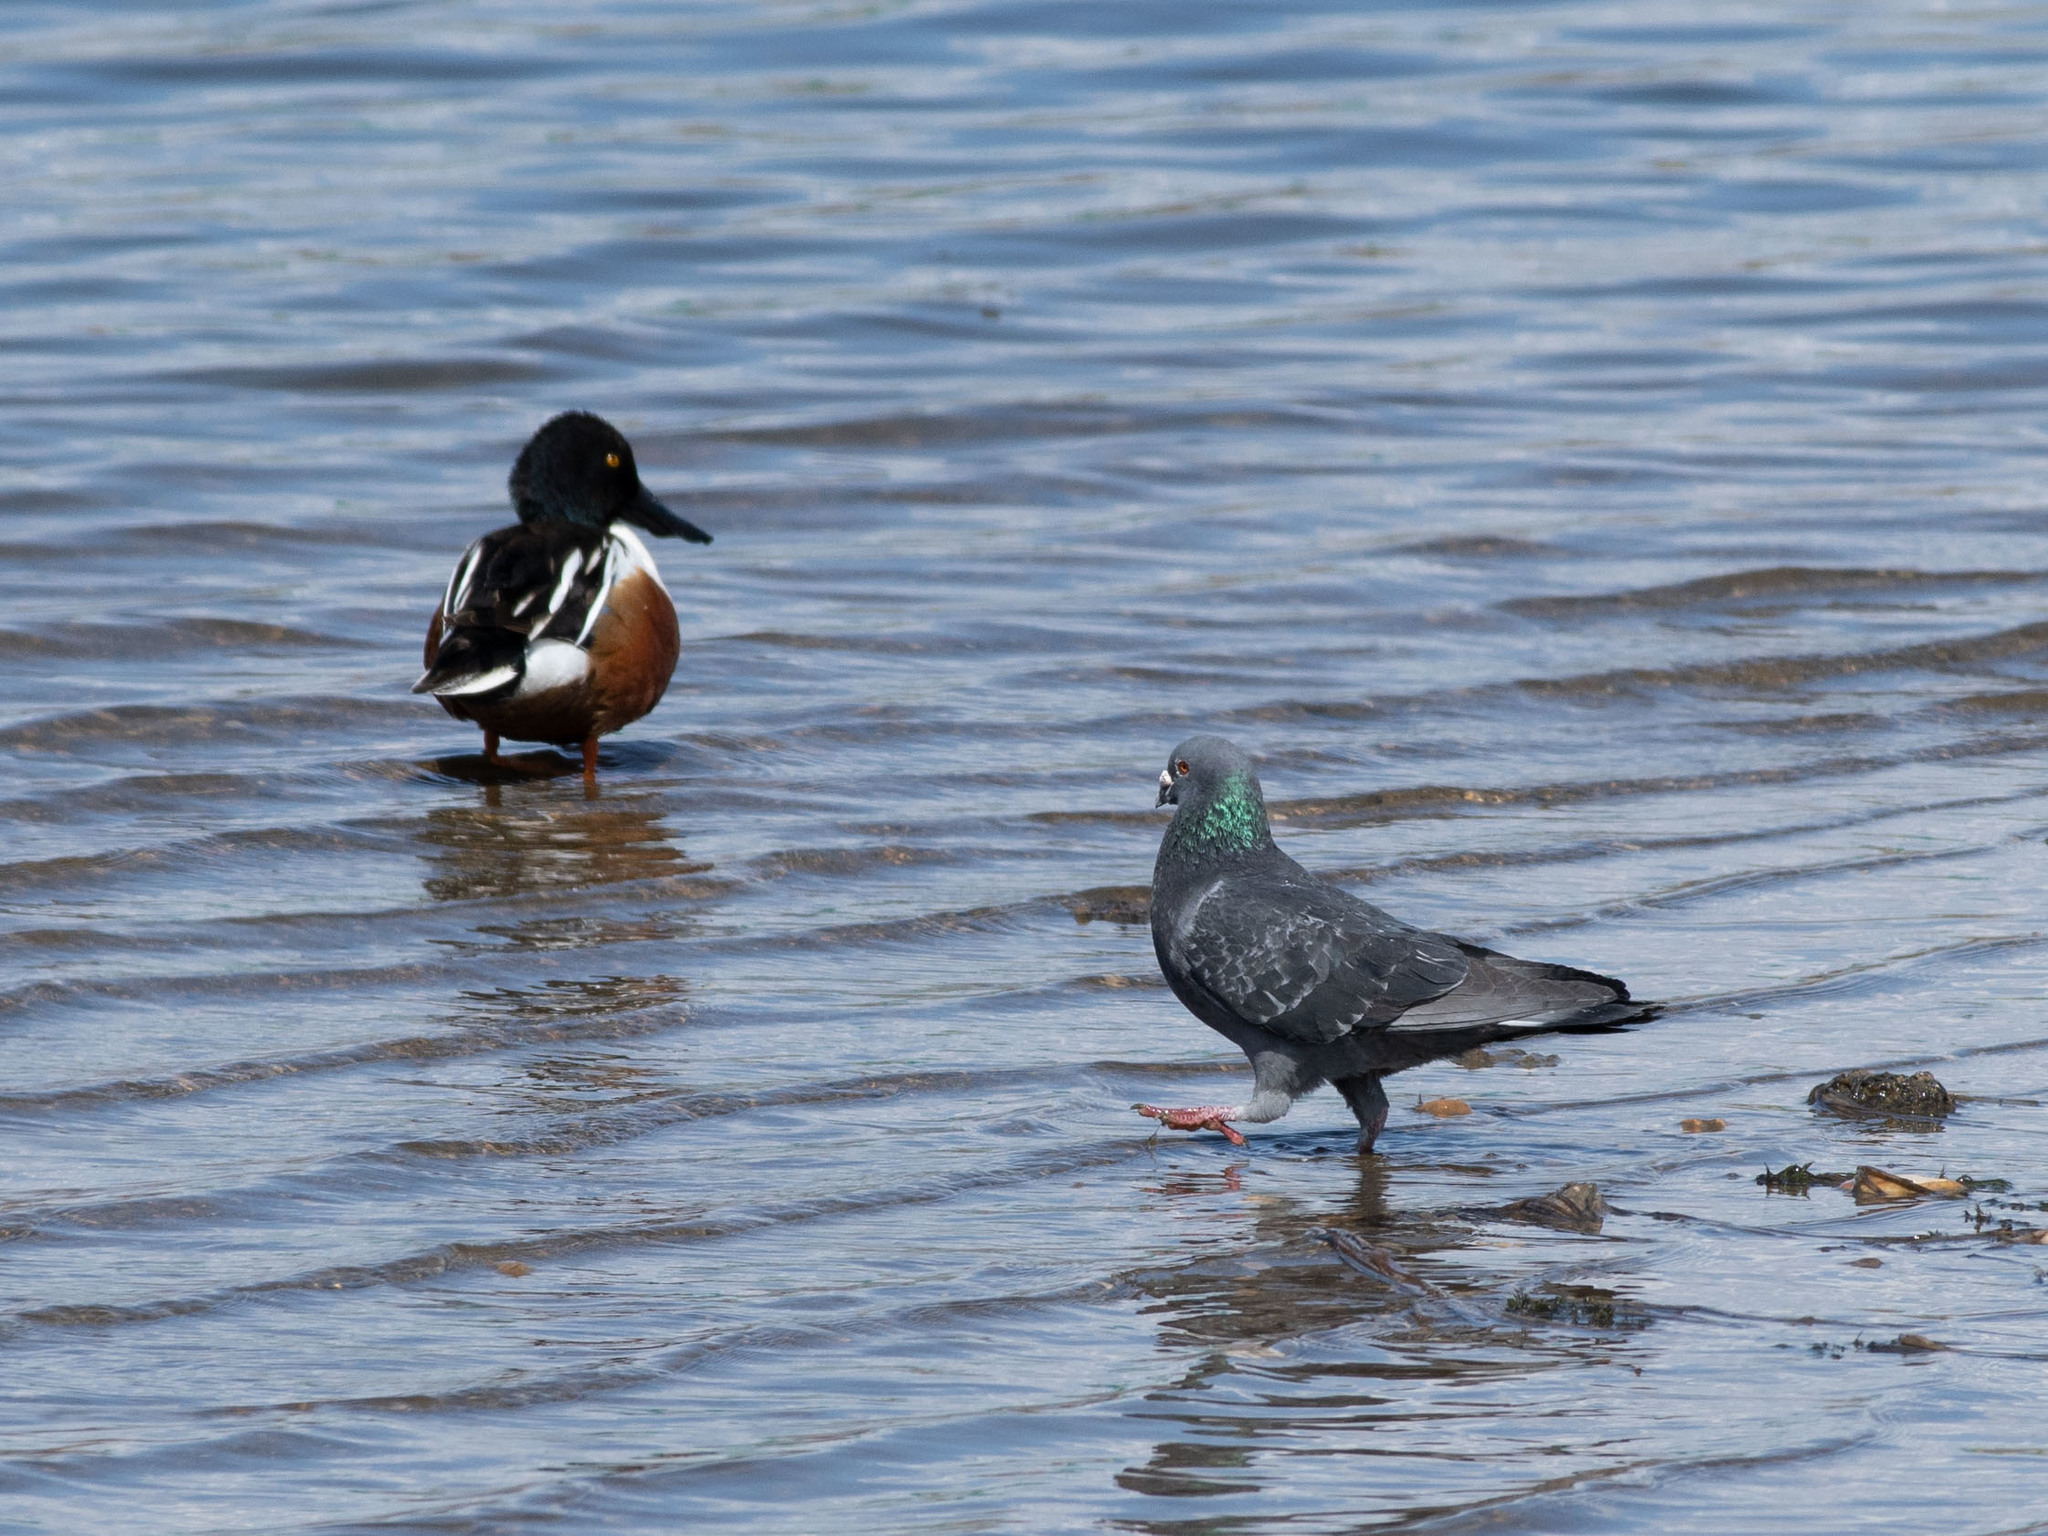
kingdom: Animalia
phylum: Chordata
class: Aves
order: Columbiformes
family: Columbidae
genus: Columba
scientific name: Columba livia
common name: Rock pigeon
